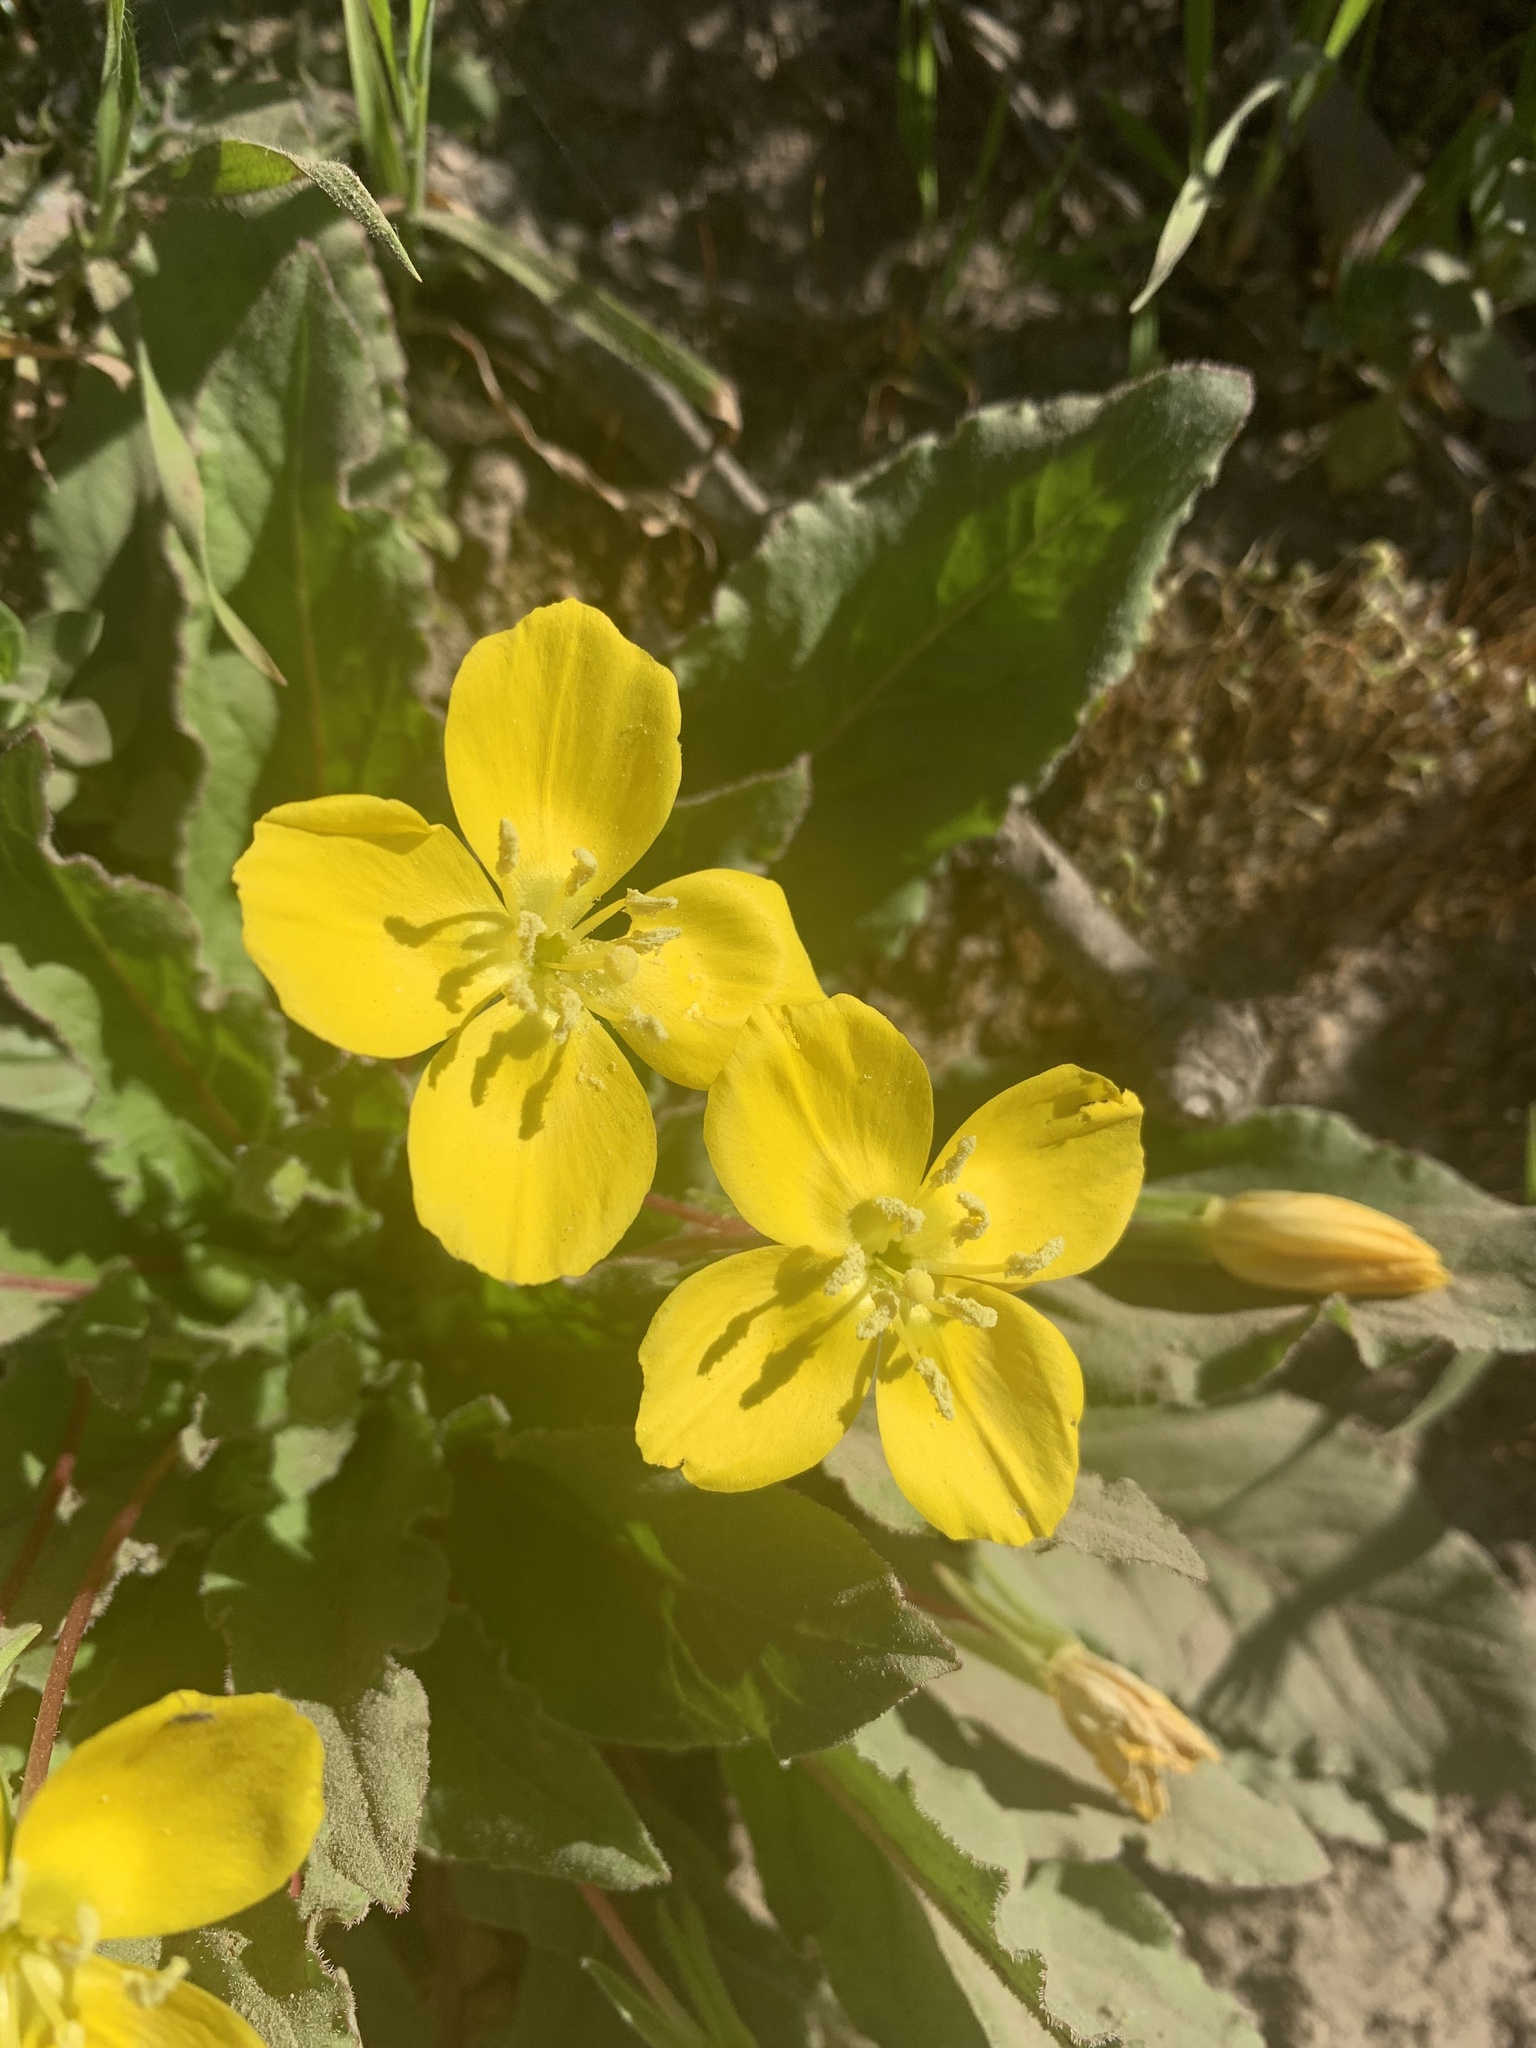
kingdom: Plantae
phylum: Tracheophyta
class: Magnoliopsida
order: Myrtales
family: Onagraceae
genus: Taraxia
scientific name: Taraxia ovata
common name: Goldeneggs
